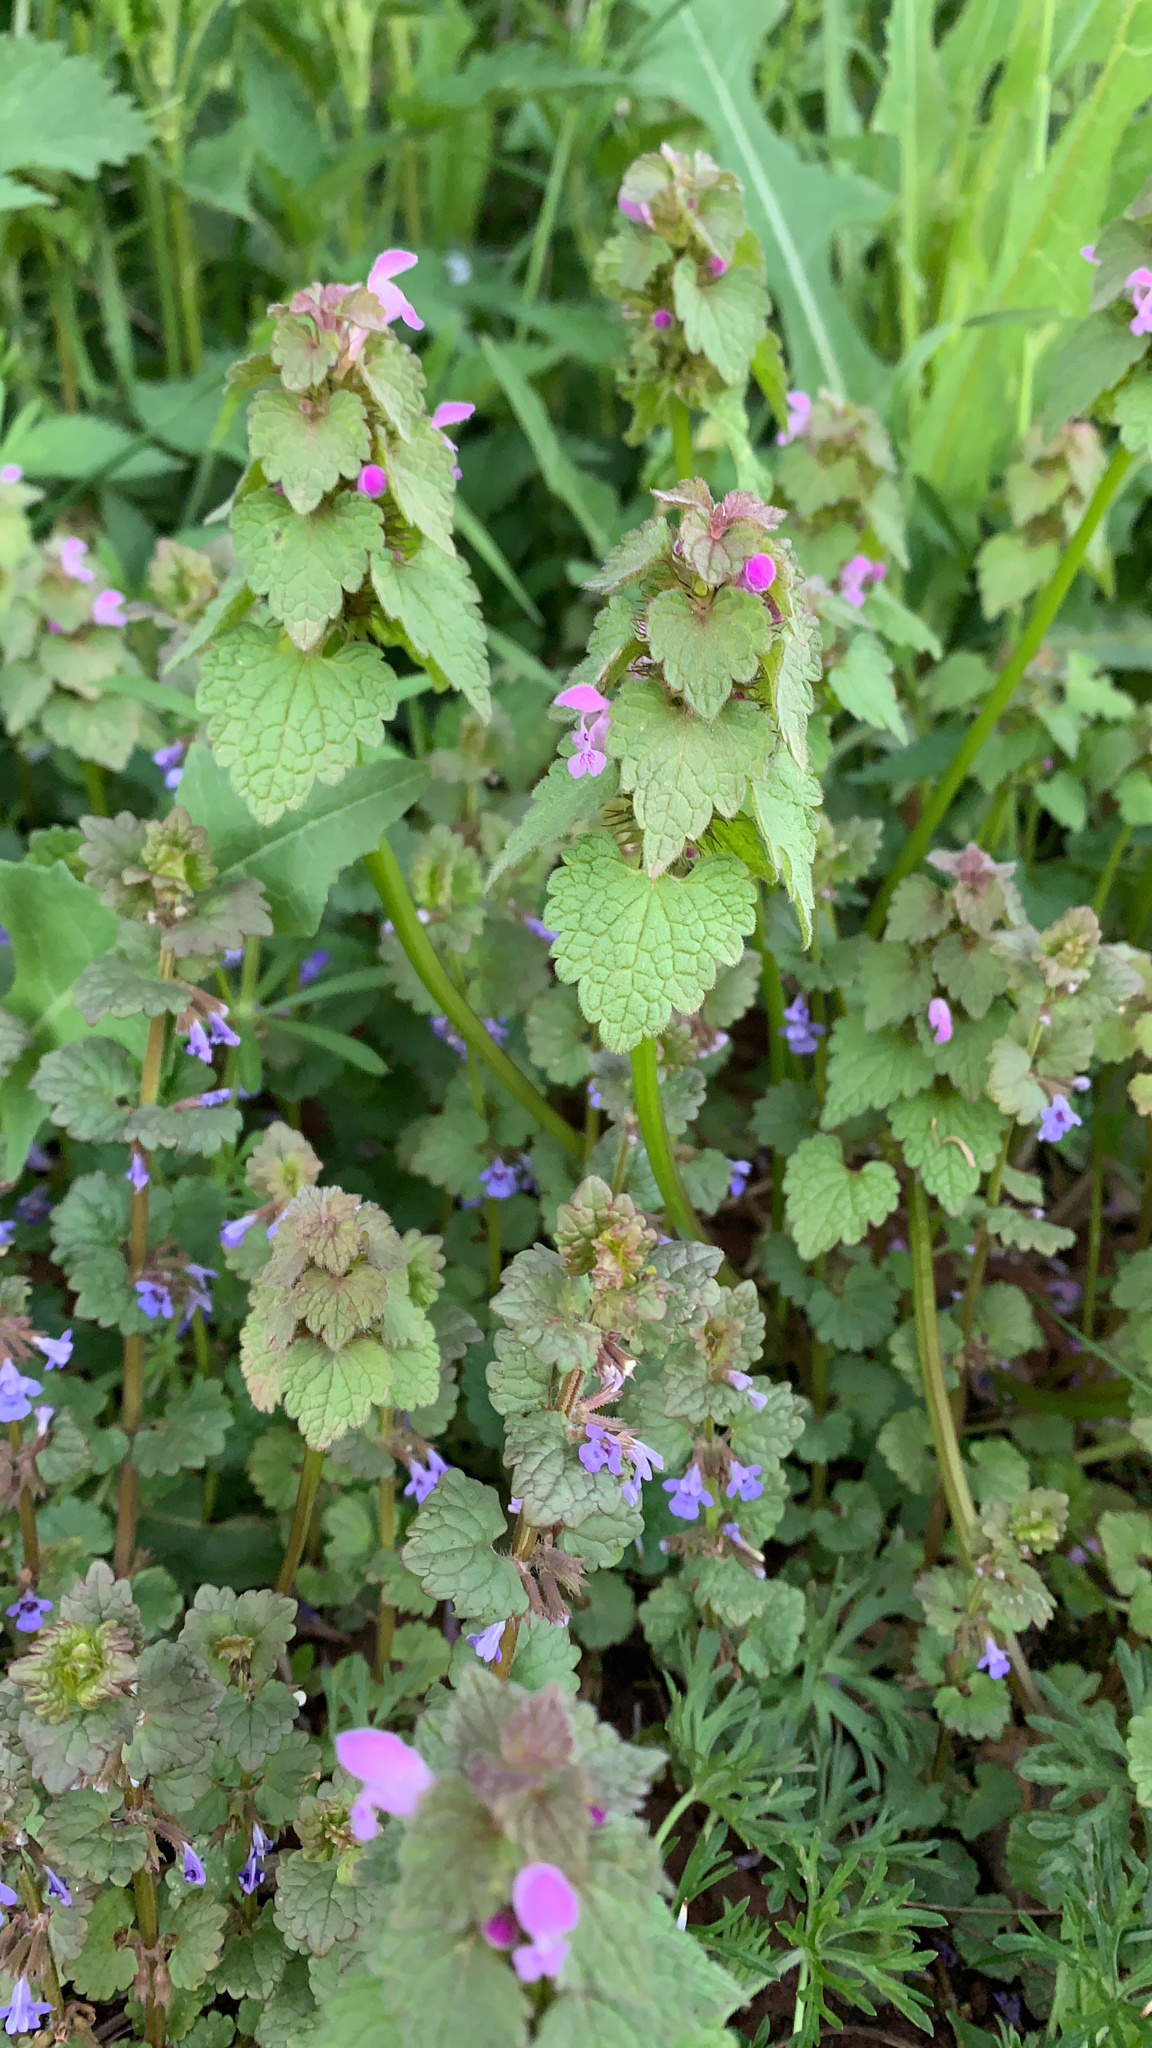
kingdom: Plantae
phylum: Tracheophyta
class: Magnoliopsida
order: Lamiales
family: Lamiaceae
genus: Lamium
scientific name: Lamium purpureum
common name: Red dead-nettle
